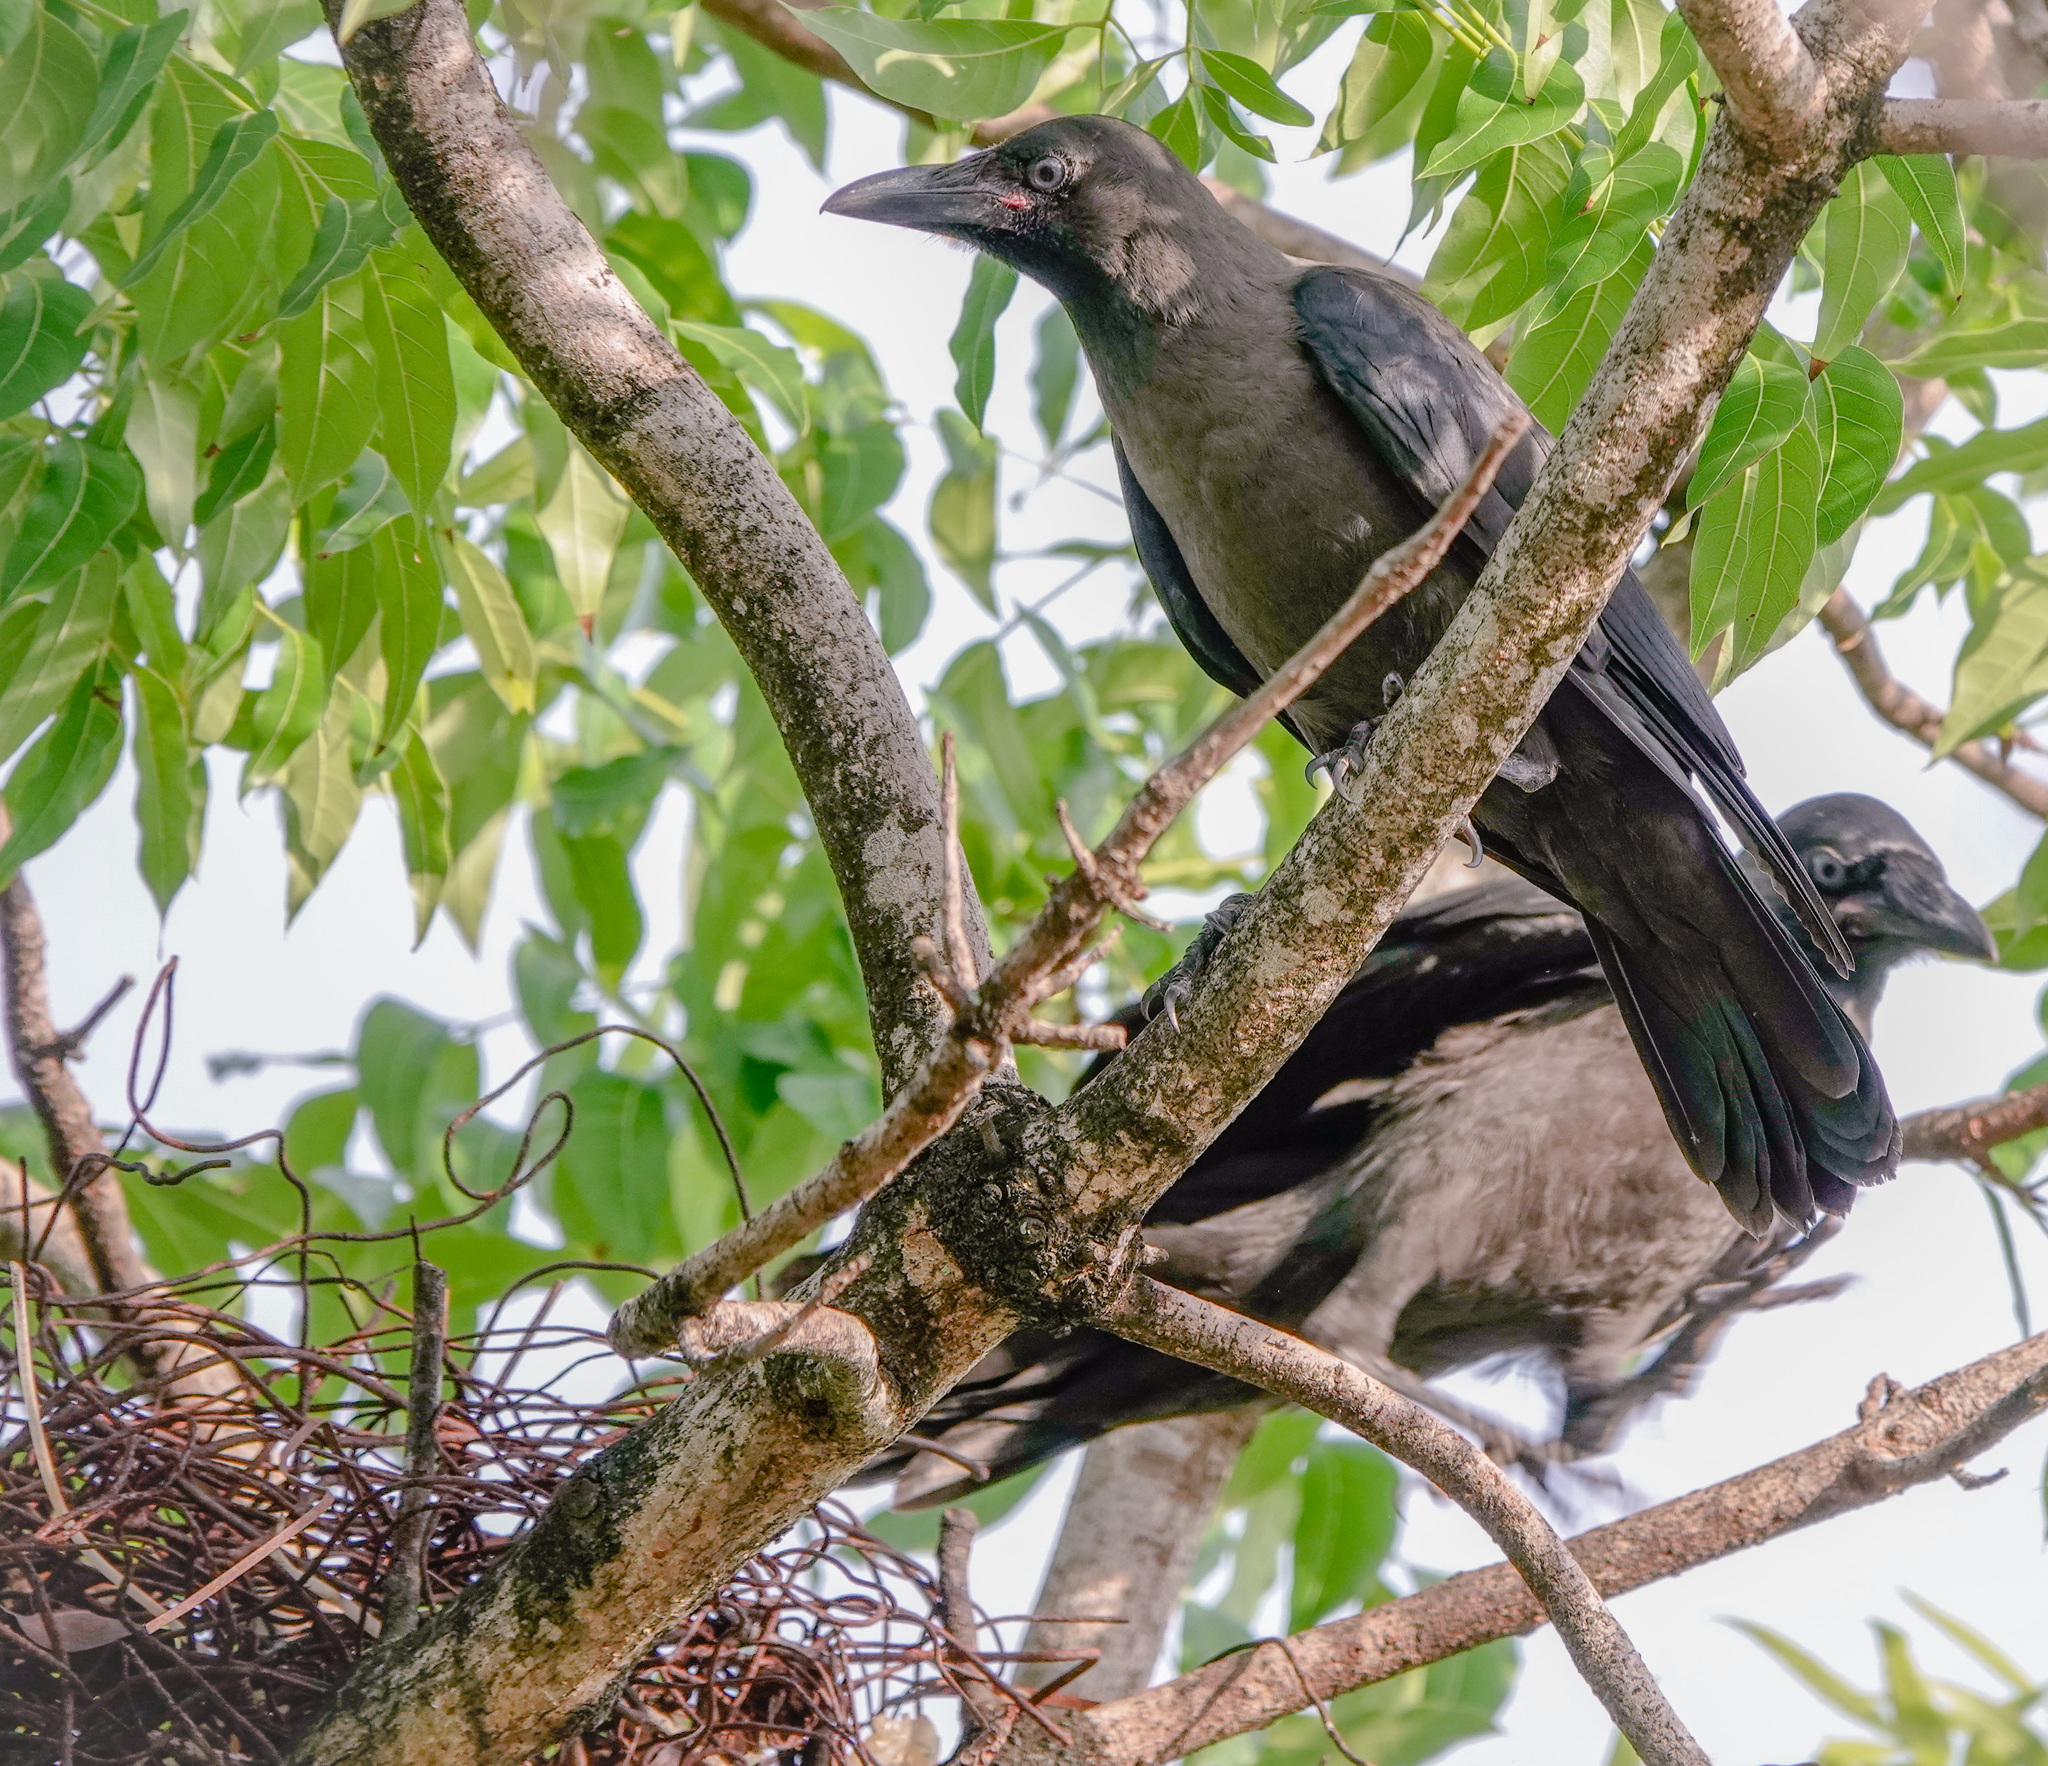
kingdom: Animalia
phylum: Chordata
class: Aves
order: Passeriformes
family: Corvidae
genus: Corvus
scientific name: Corvus splendens
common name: House crow
